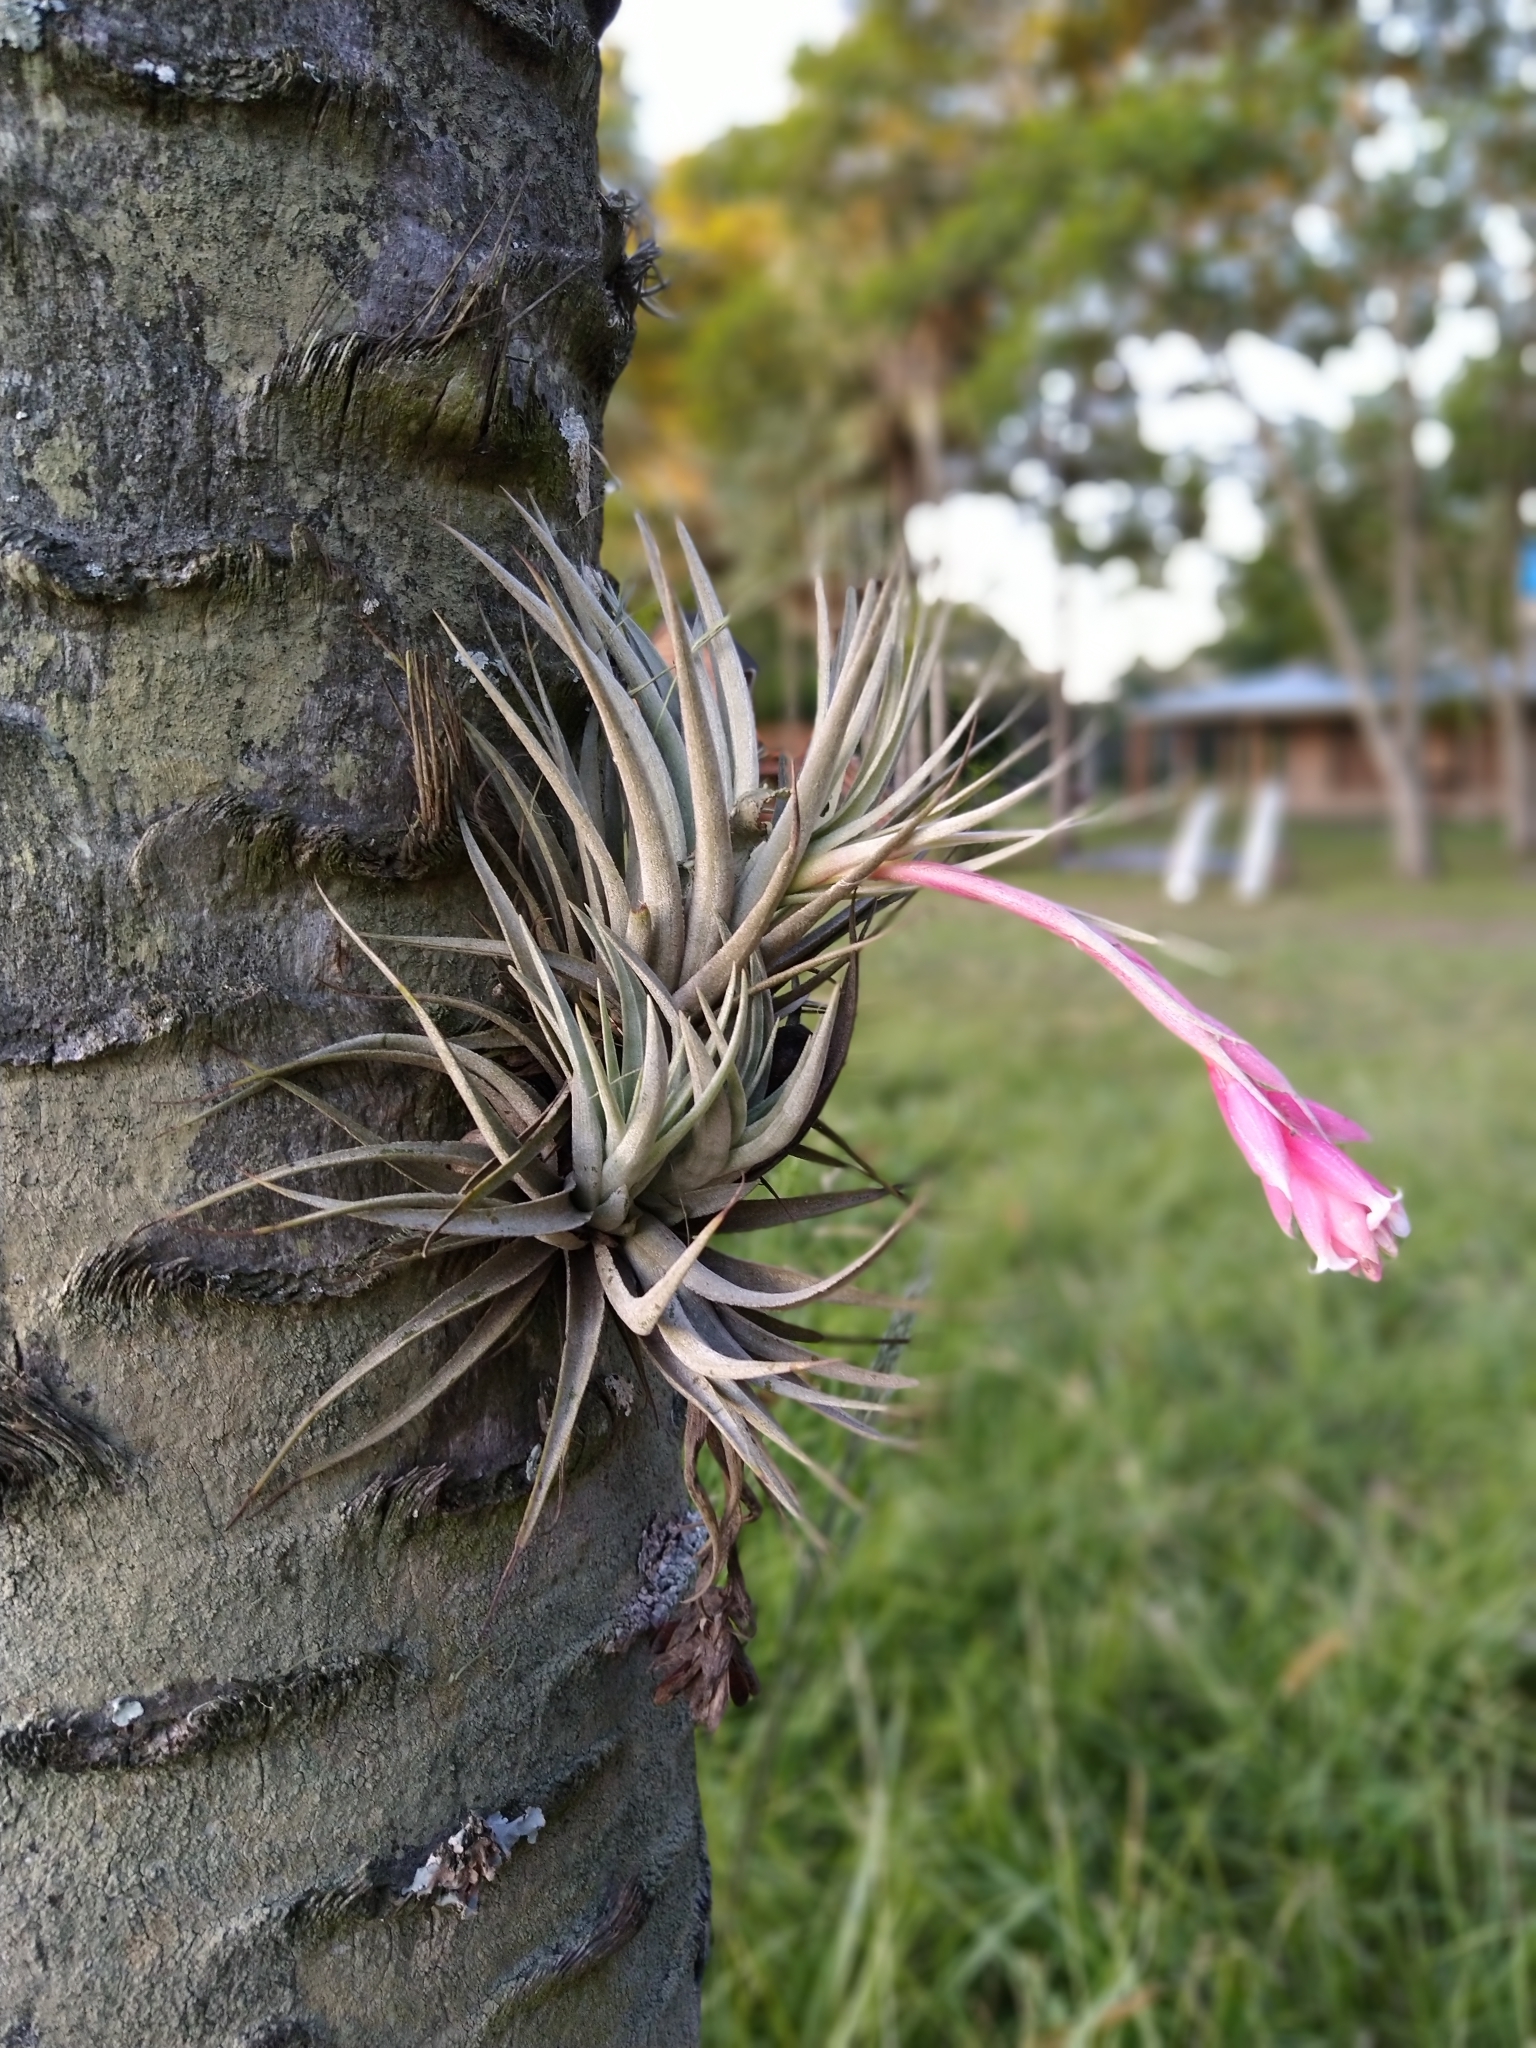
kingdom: Plantae
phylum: Tracheophyta
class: Liliopsida
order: Poales
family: Bromeliaceae
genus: Tillandsia
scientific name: Tillandsia recurvifolia
